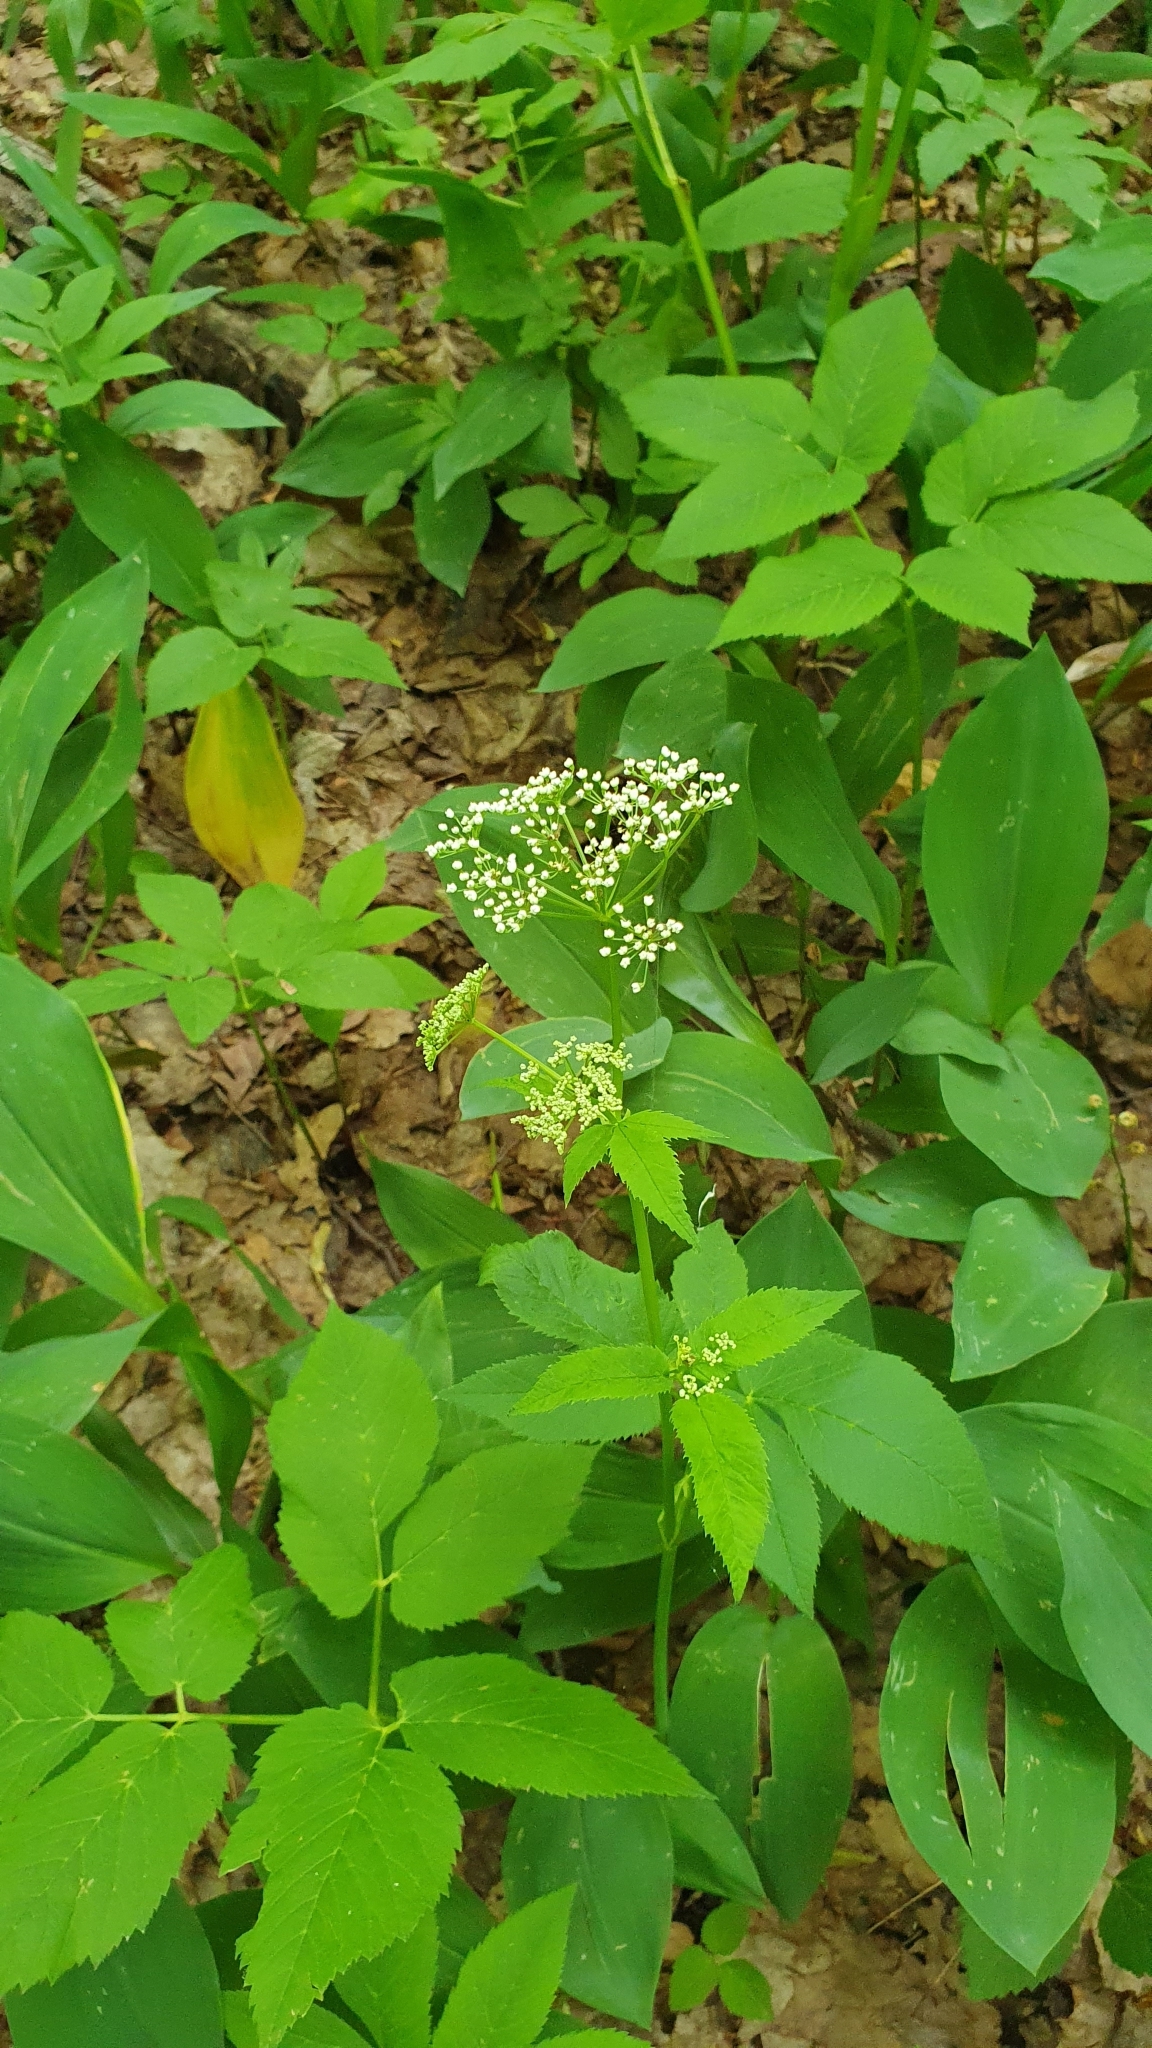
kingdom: Plantae
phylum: Tracheophyta
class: Magnoliopsida
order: Apiales
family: Apiaceae
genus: Aegopodium
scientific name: Aegopodium podagraria
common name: Ground-elder
